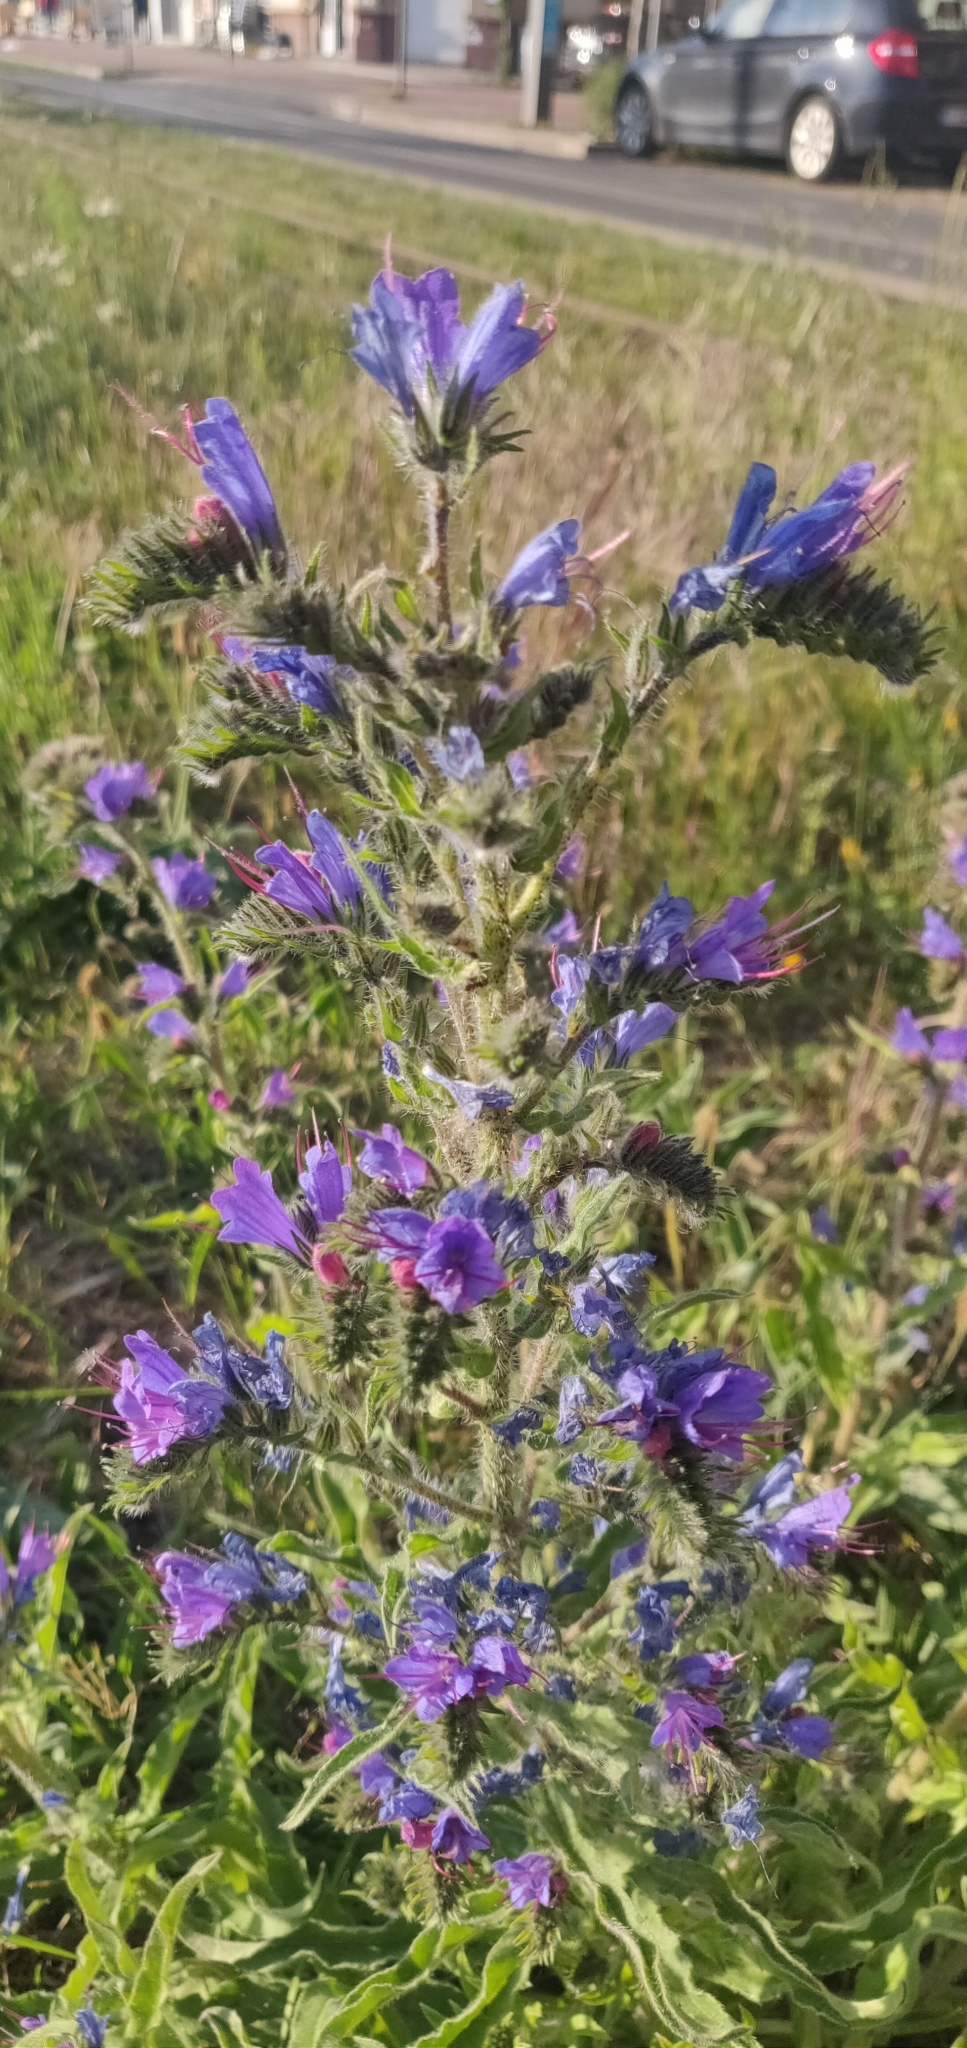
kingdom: Plantae
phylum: Tracheophyta
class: Magnoliopsida
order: Boraginales
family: Boraginaceae
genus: Echium
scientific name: Echium vulgare
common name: Common viper's bugloss
